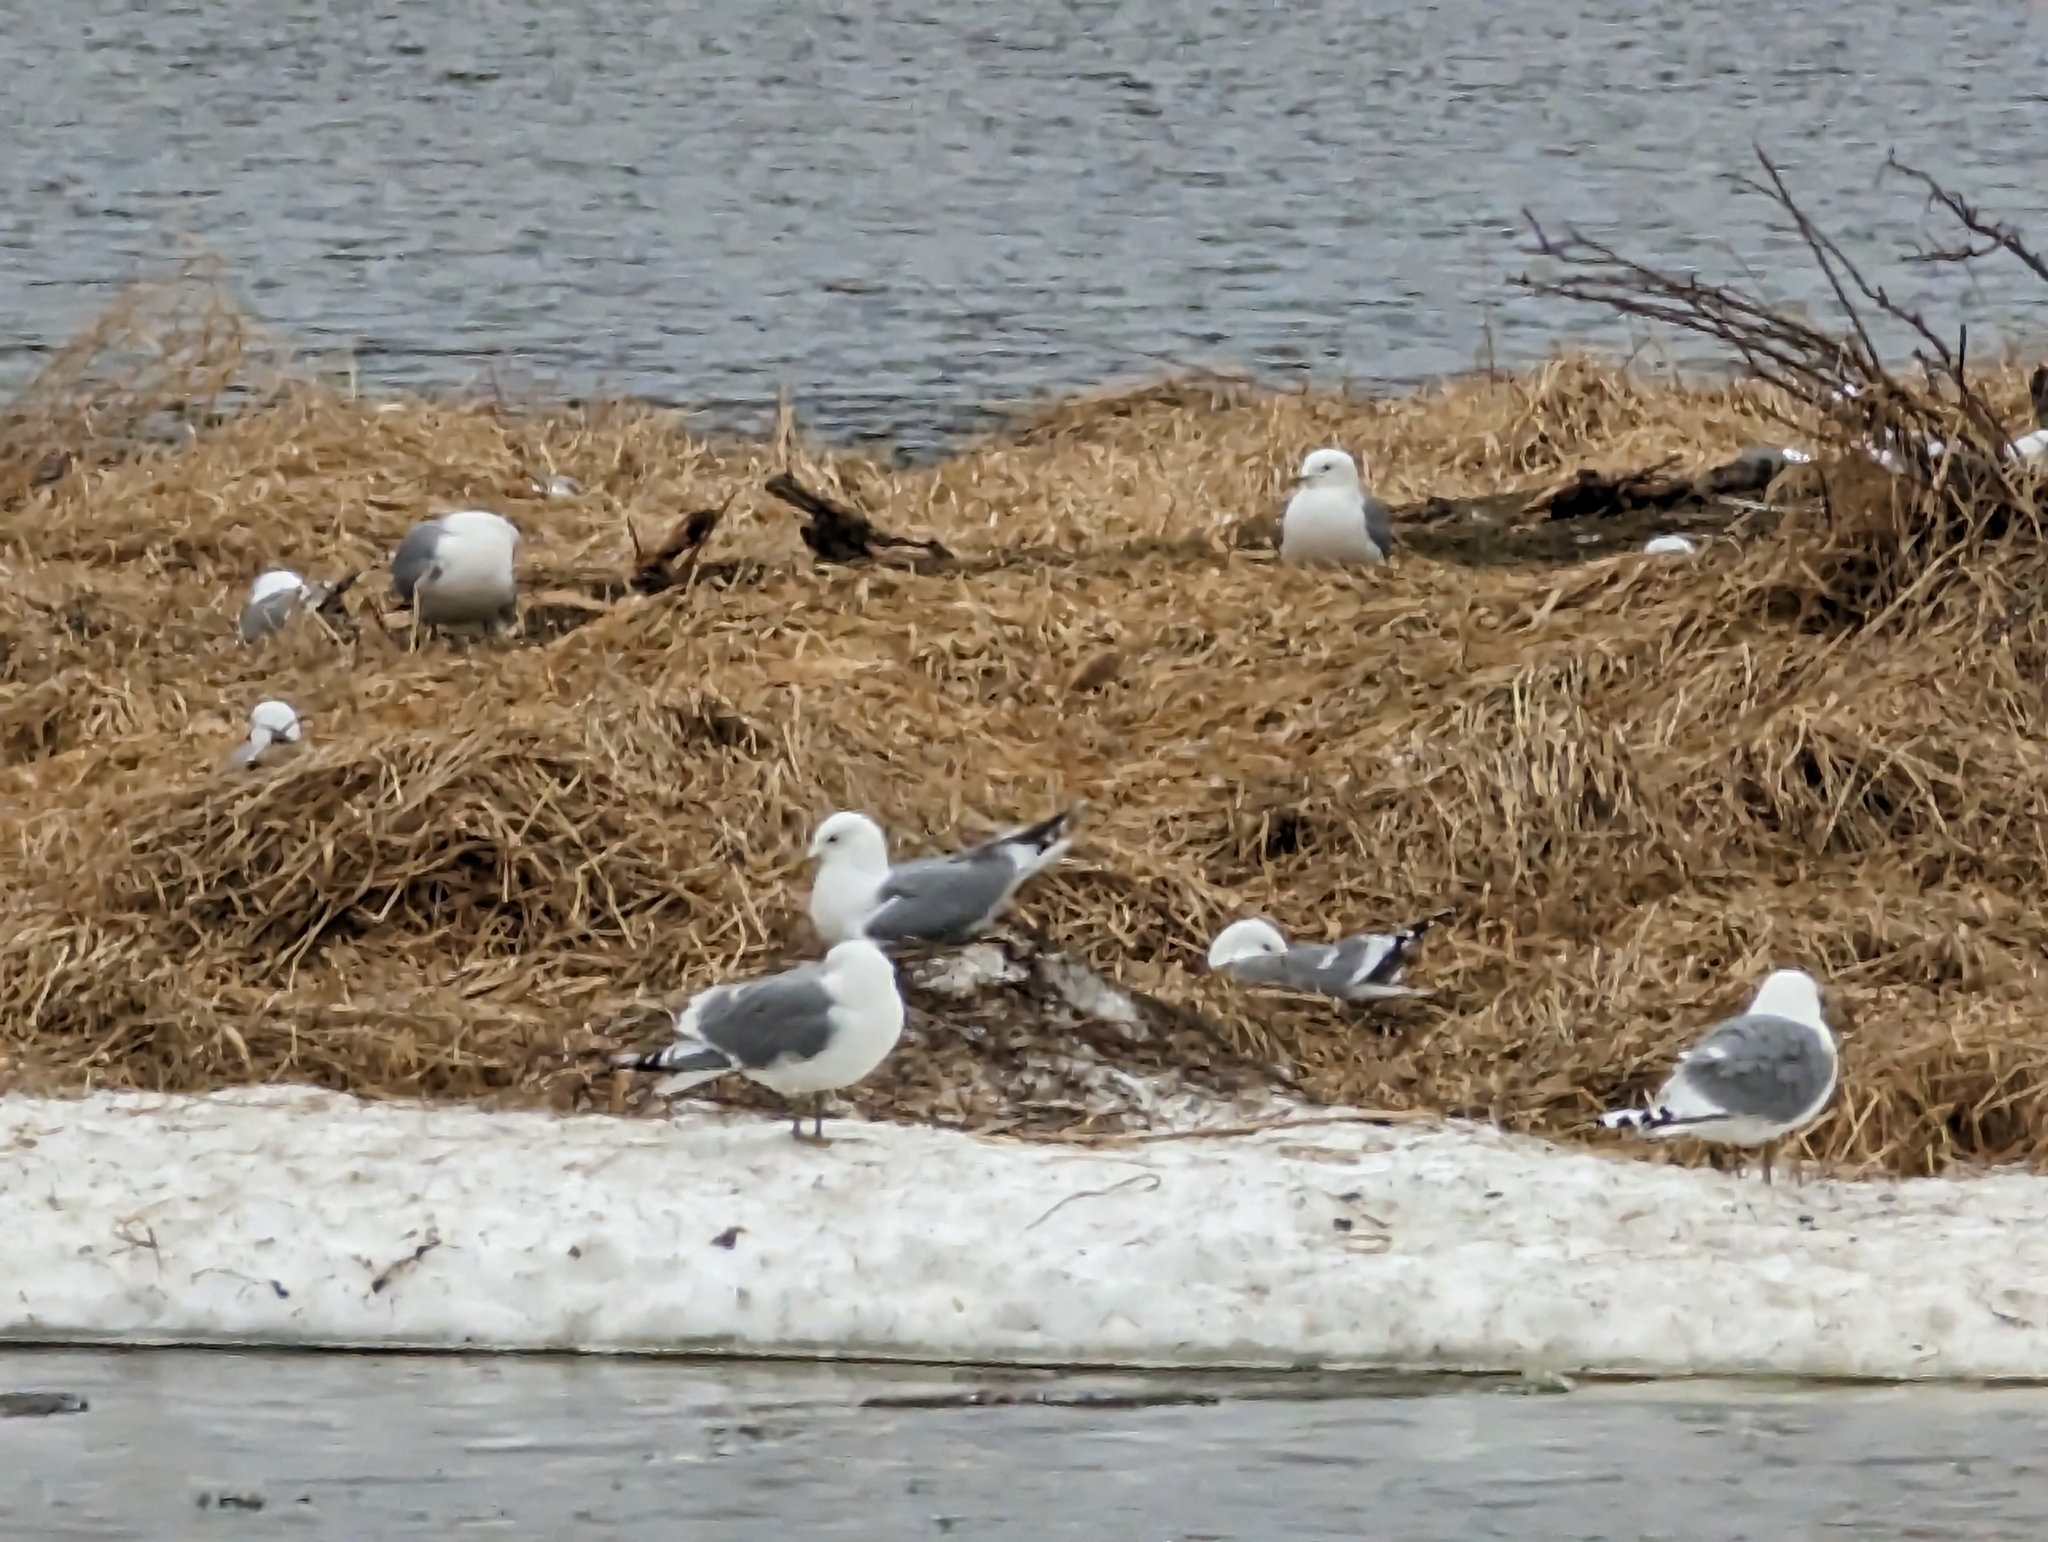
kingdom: Animalia
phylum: Chordata
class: Aves
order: Charadriiformes
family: Laridae
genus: Larus
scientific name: Larus brachyrhynchus
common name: Short-billed gull
